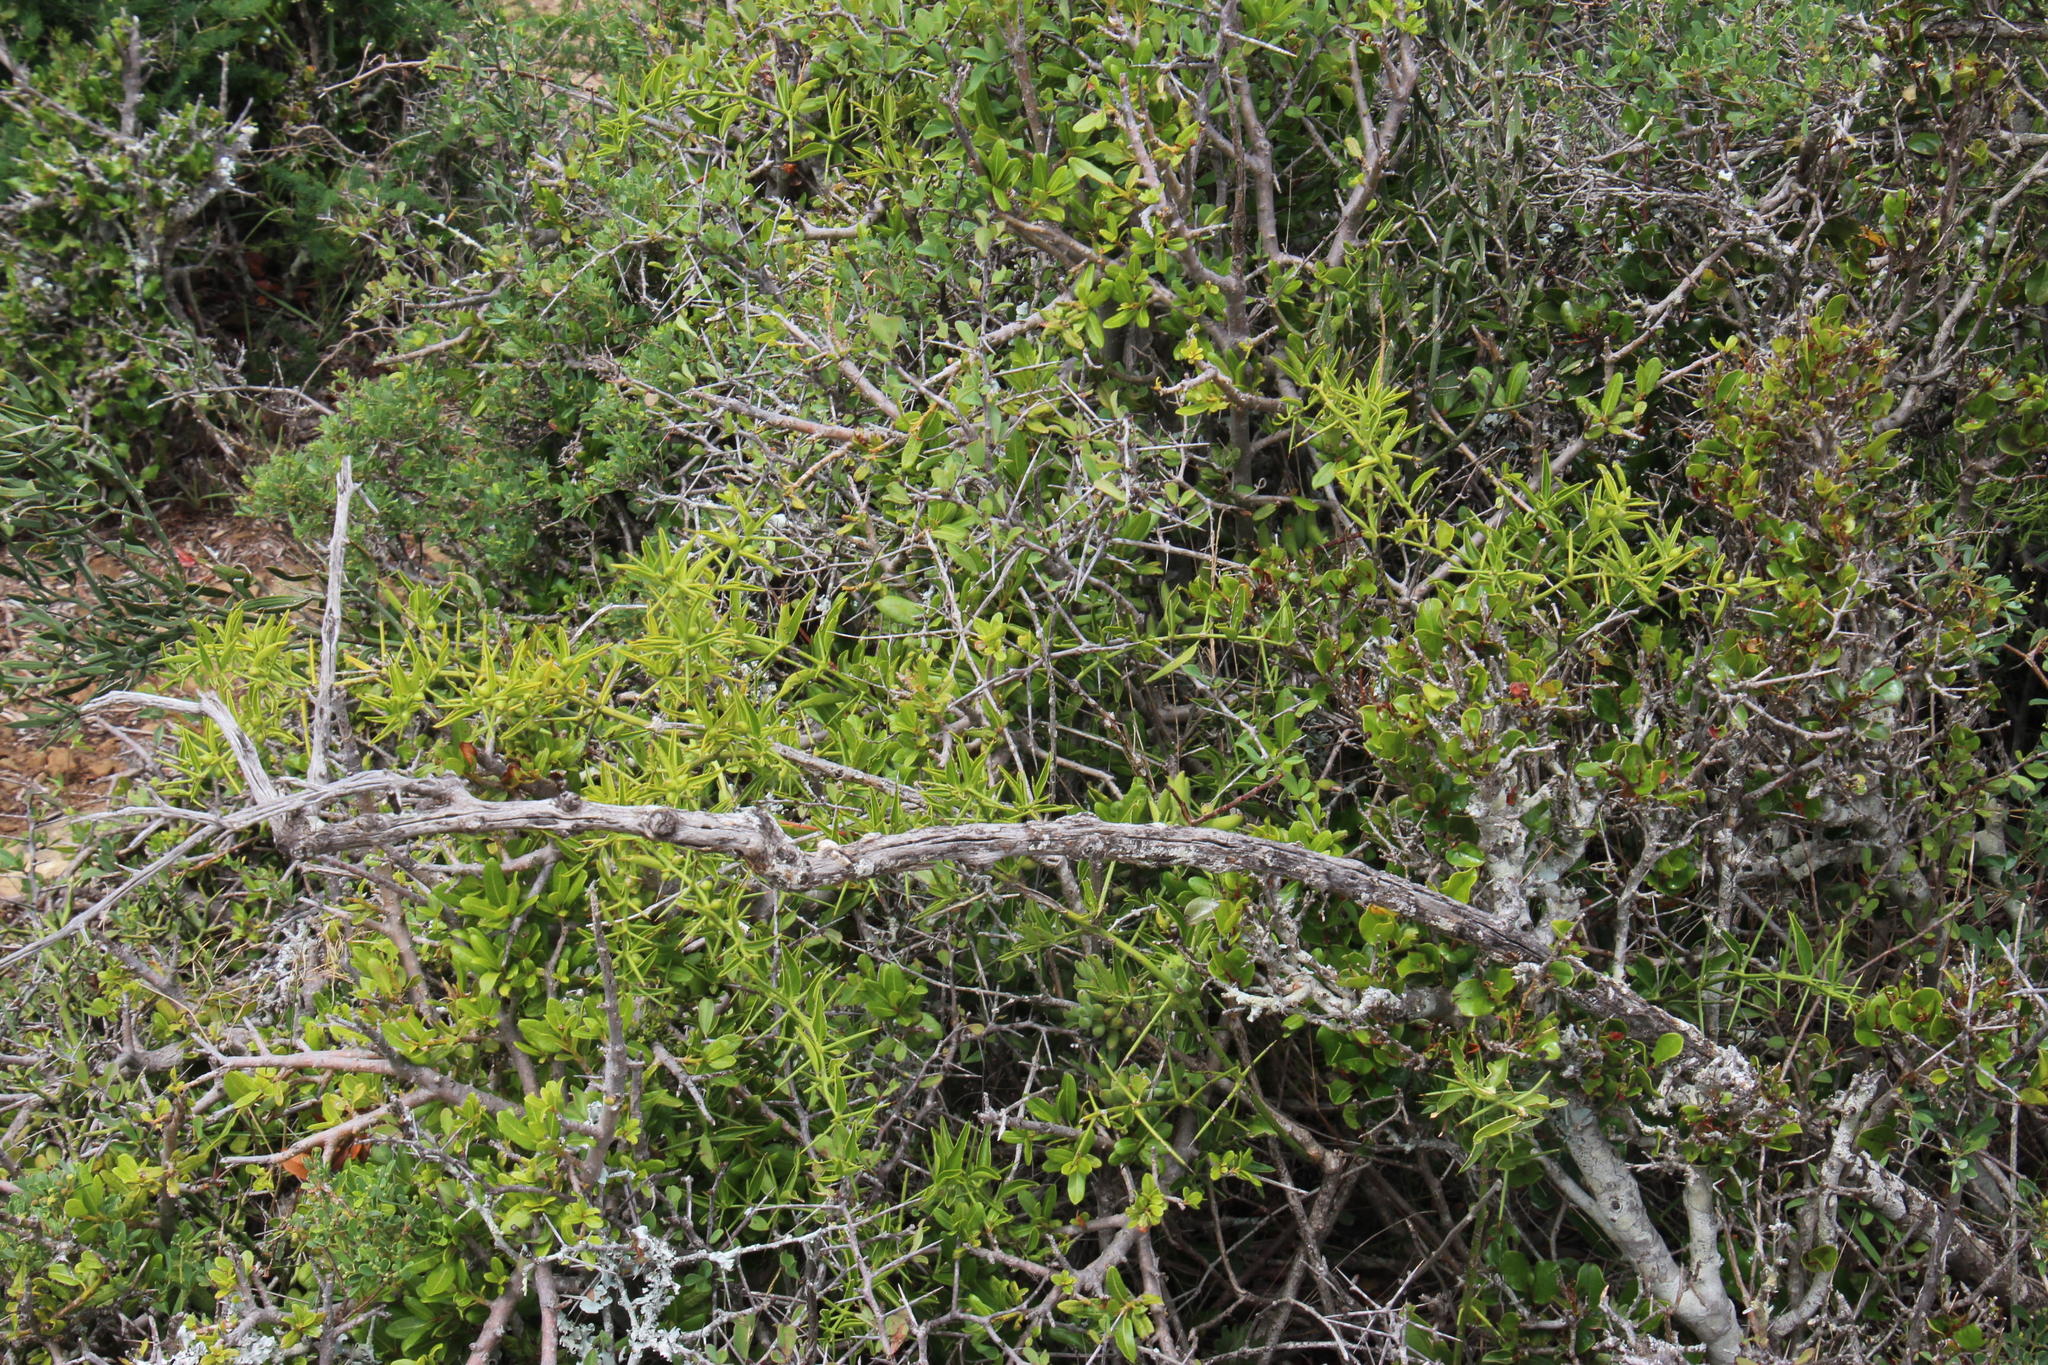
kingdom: Plantae
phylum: Tracheophyta
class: Magnoliopsida
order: Brassicales
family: Salvadoraceae
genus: Azima
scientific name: Azima tetracantha
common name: Needle bush
